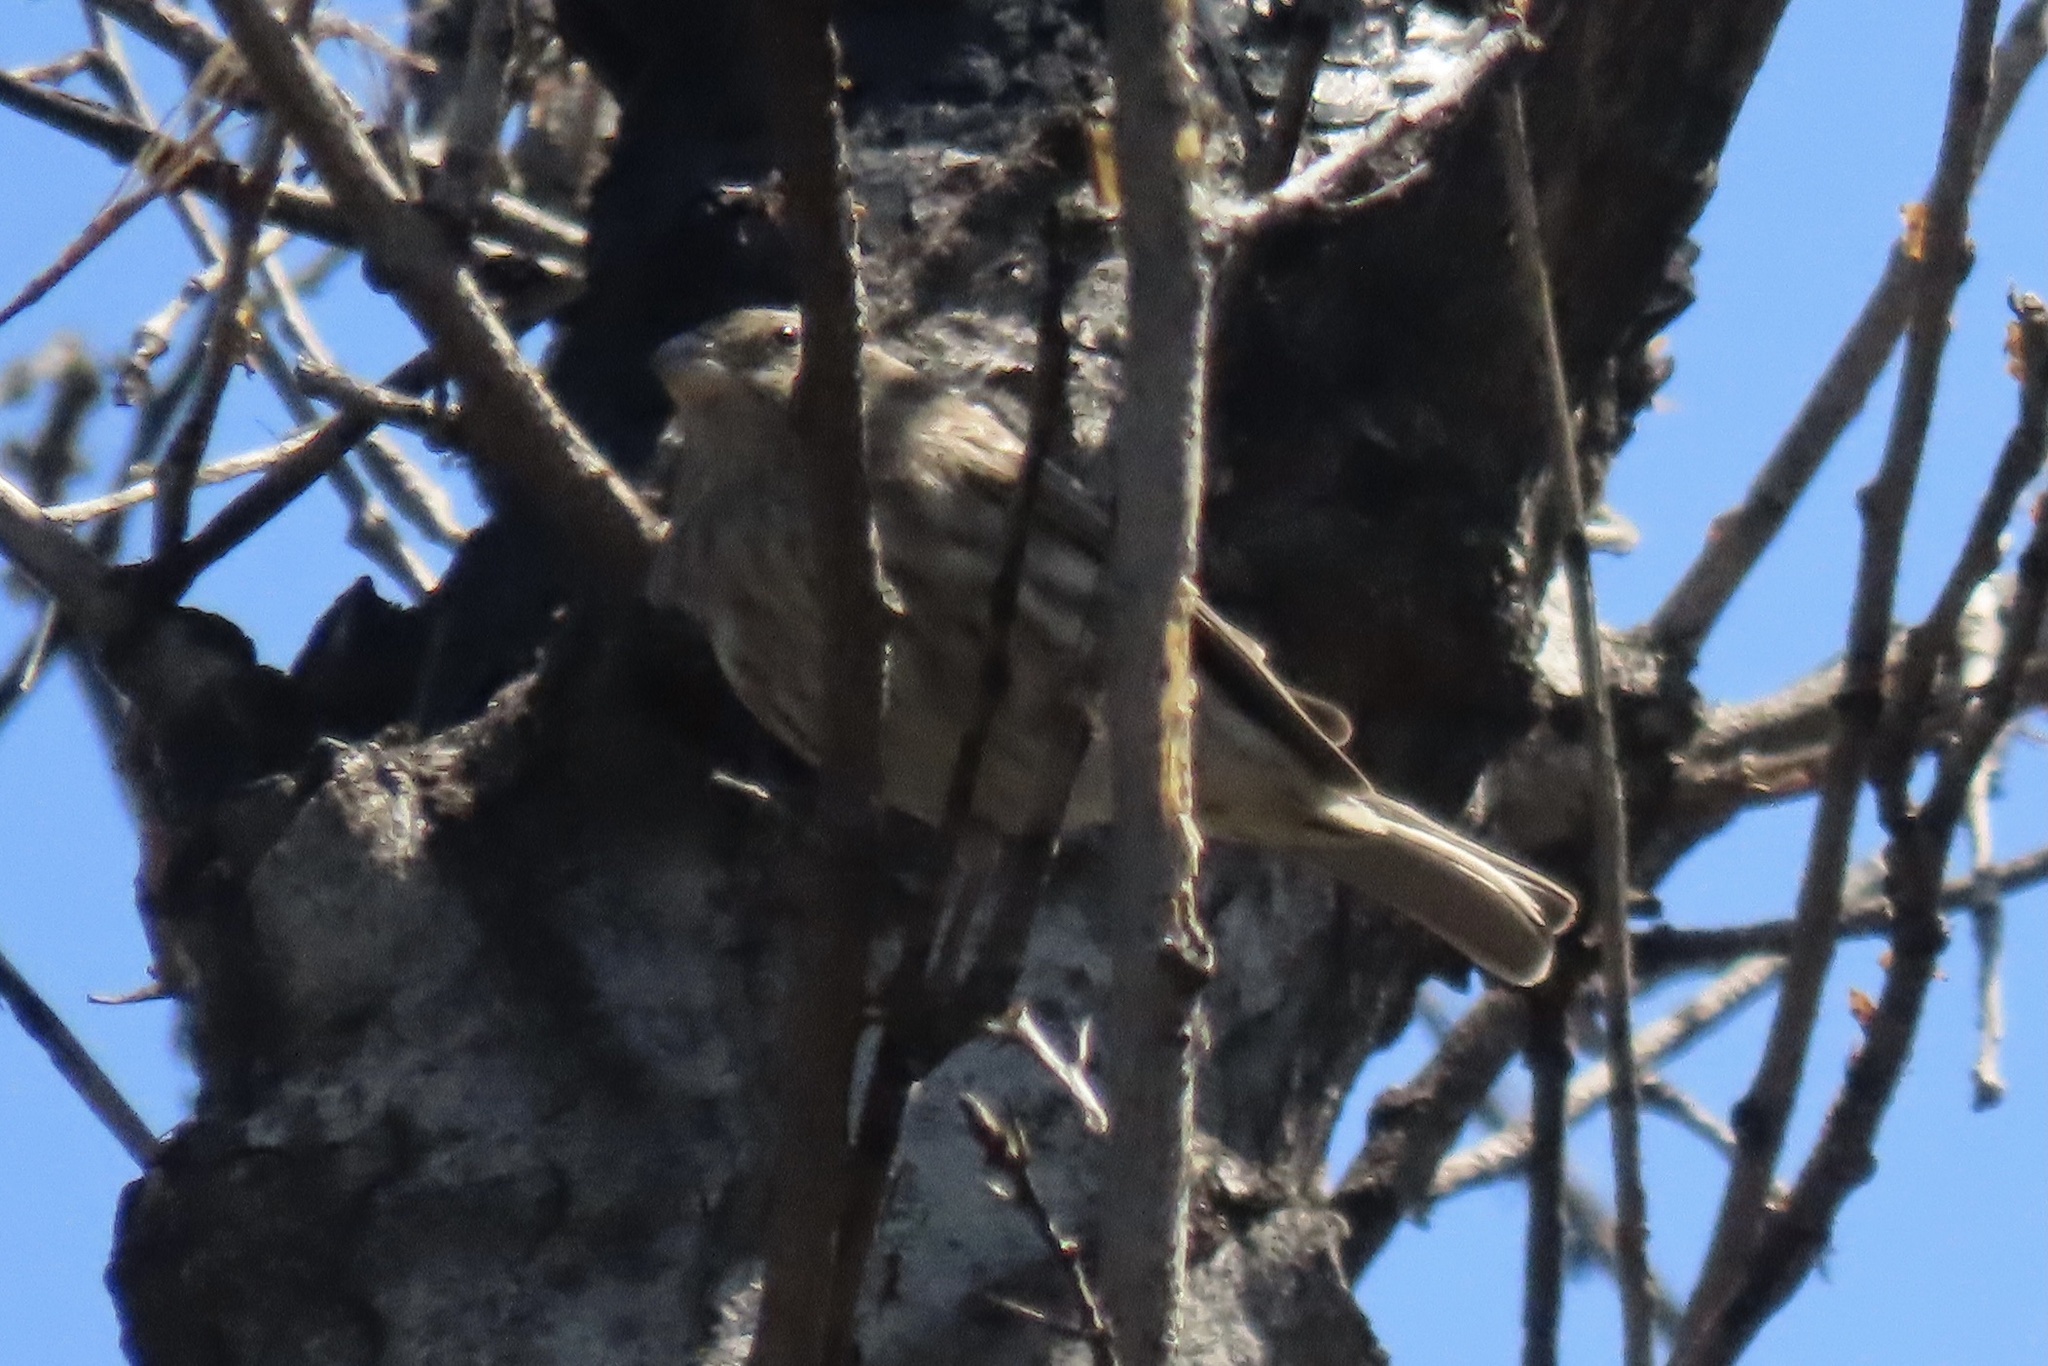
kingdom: Animalia
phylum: Chordata
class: Aves
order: Passeriformes
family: Fringillidae
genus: Haemorhous
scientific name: Haemorhous mexicanus
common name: House finch
